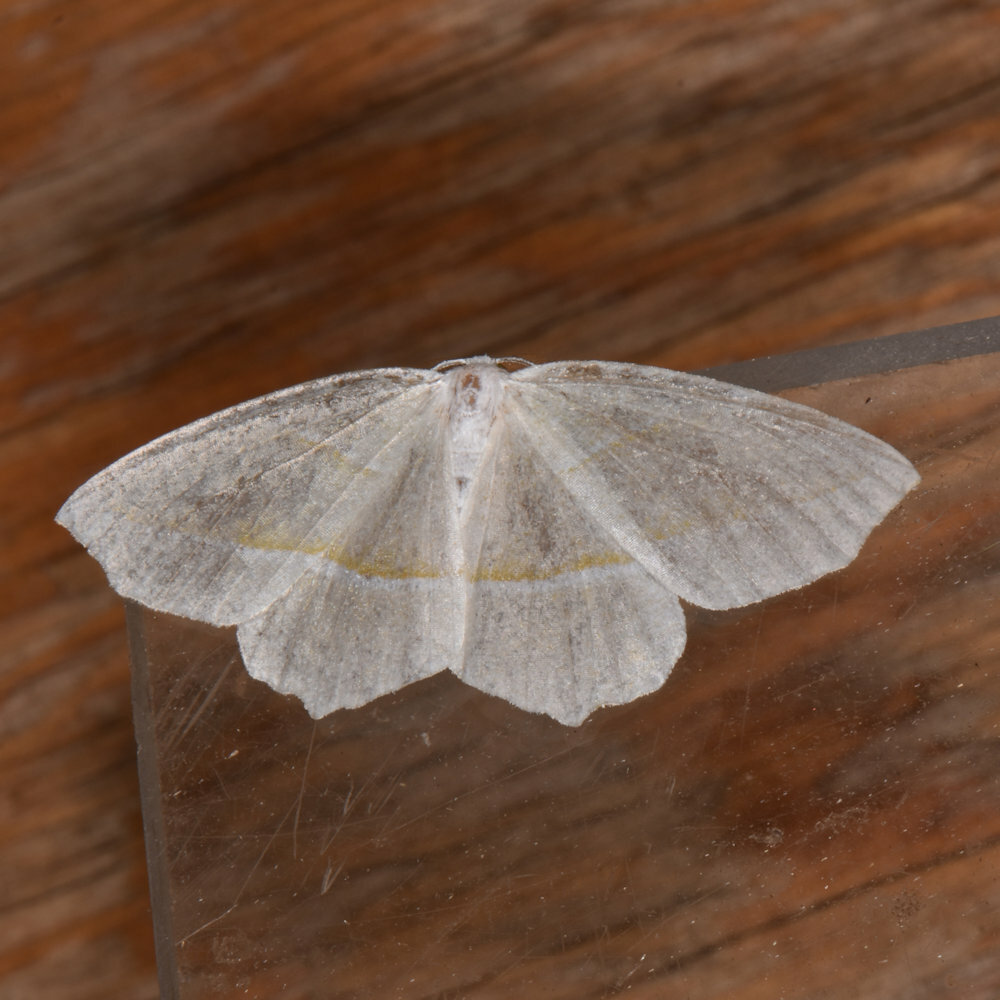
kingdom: Animalia
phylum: Arthropoda
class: Insecta
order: Lepidoptera
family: Geometridae
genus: Campaea
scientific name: Campaea perlata
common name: Fringed looper
